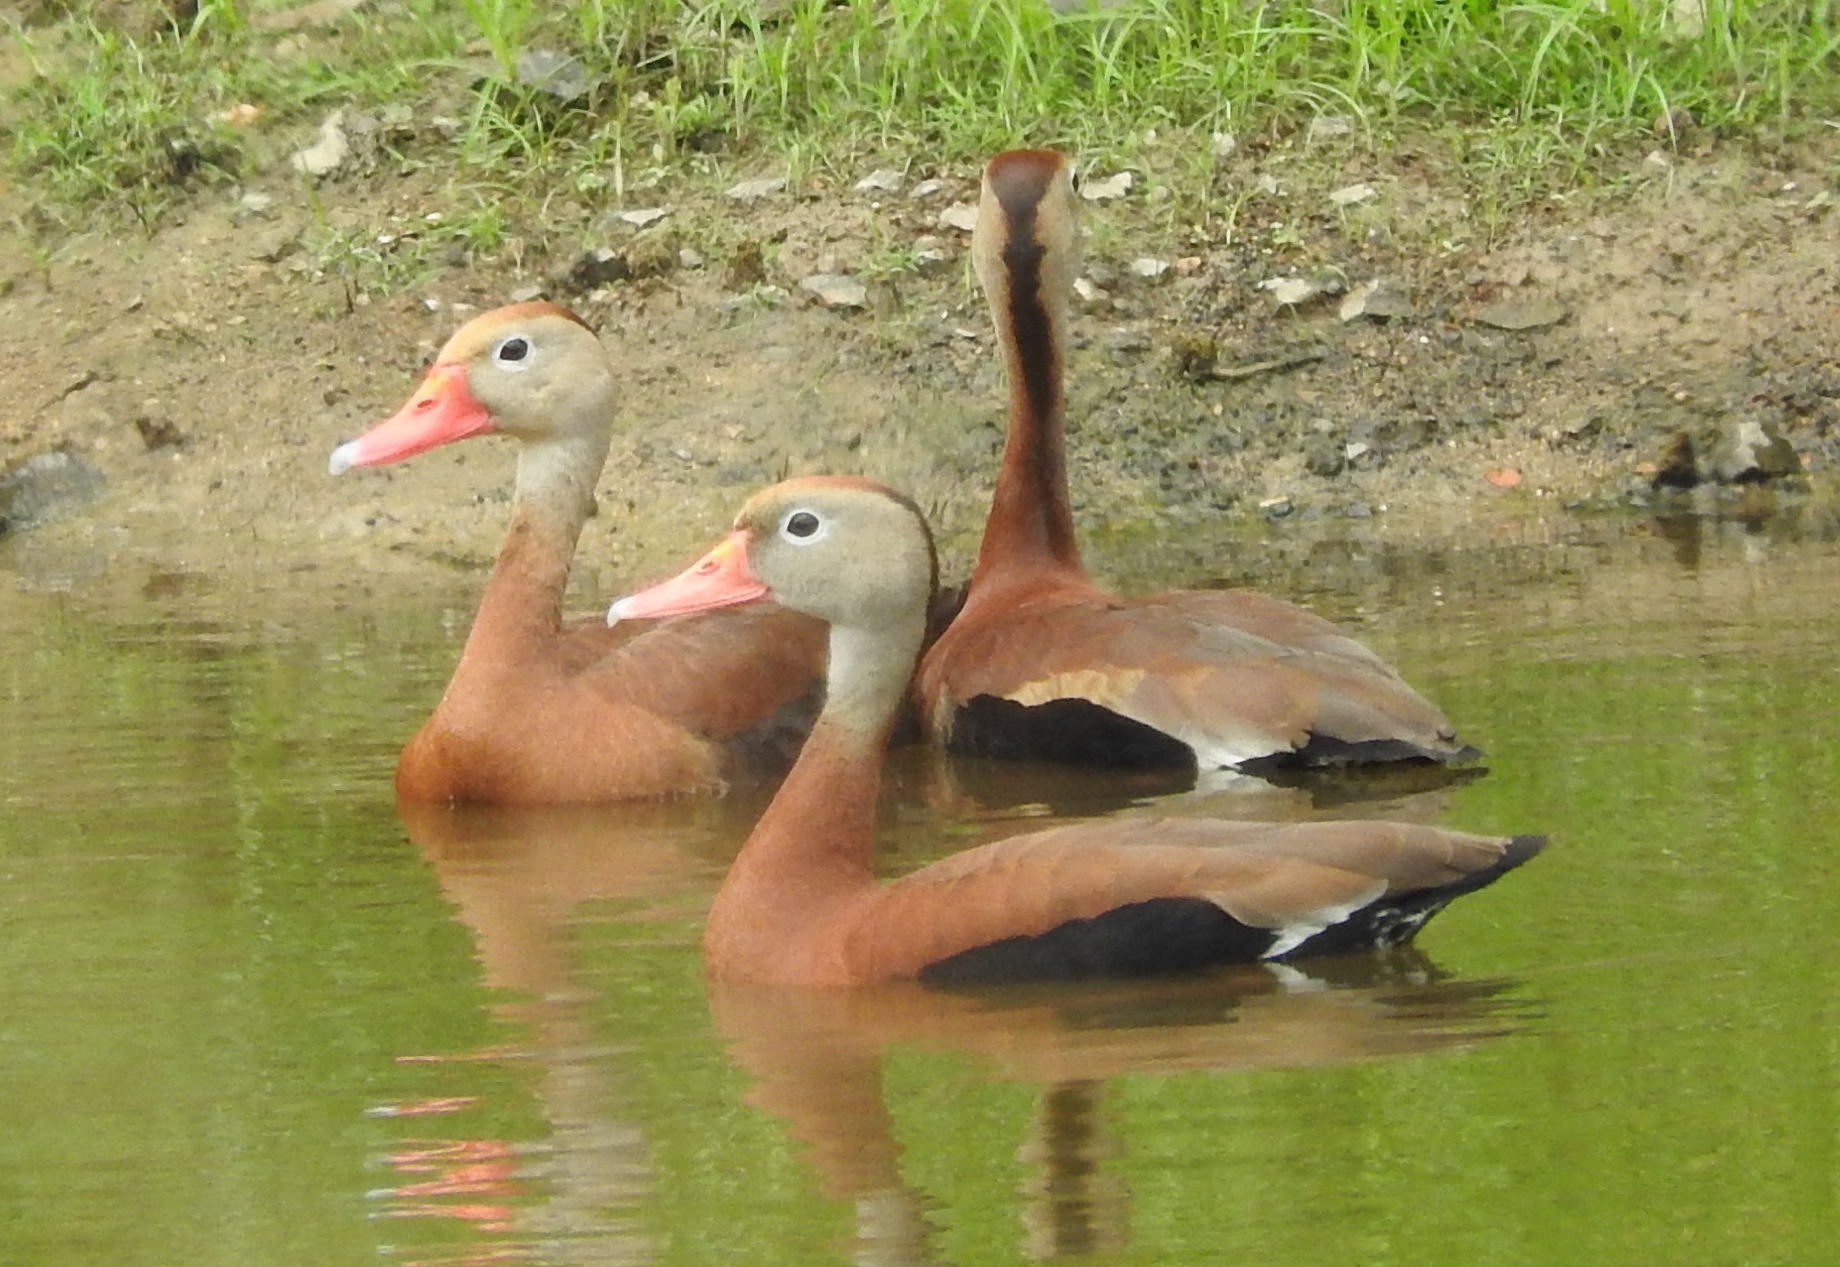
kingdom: Animalia
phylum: Chordata
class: Aves
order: Anseriformes
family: Anatidae
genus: Dendrocygna
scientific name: Dendrocygna autumnalis
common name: Black-bellied whistling duck
